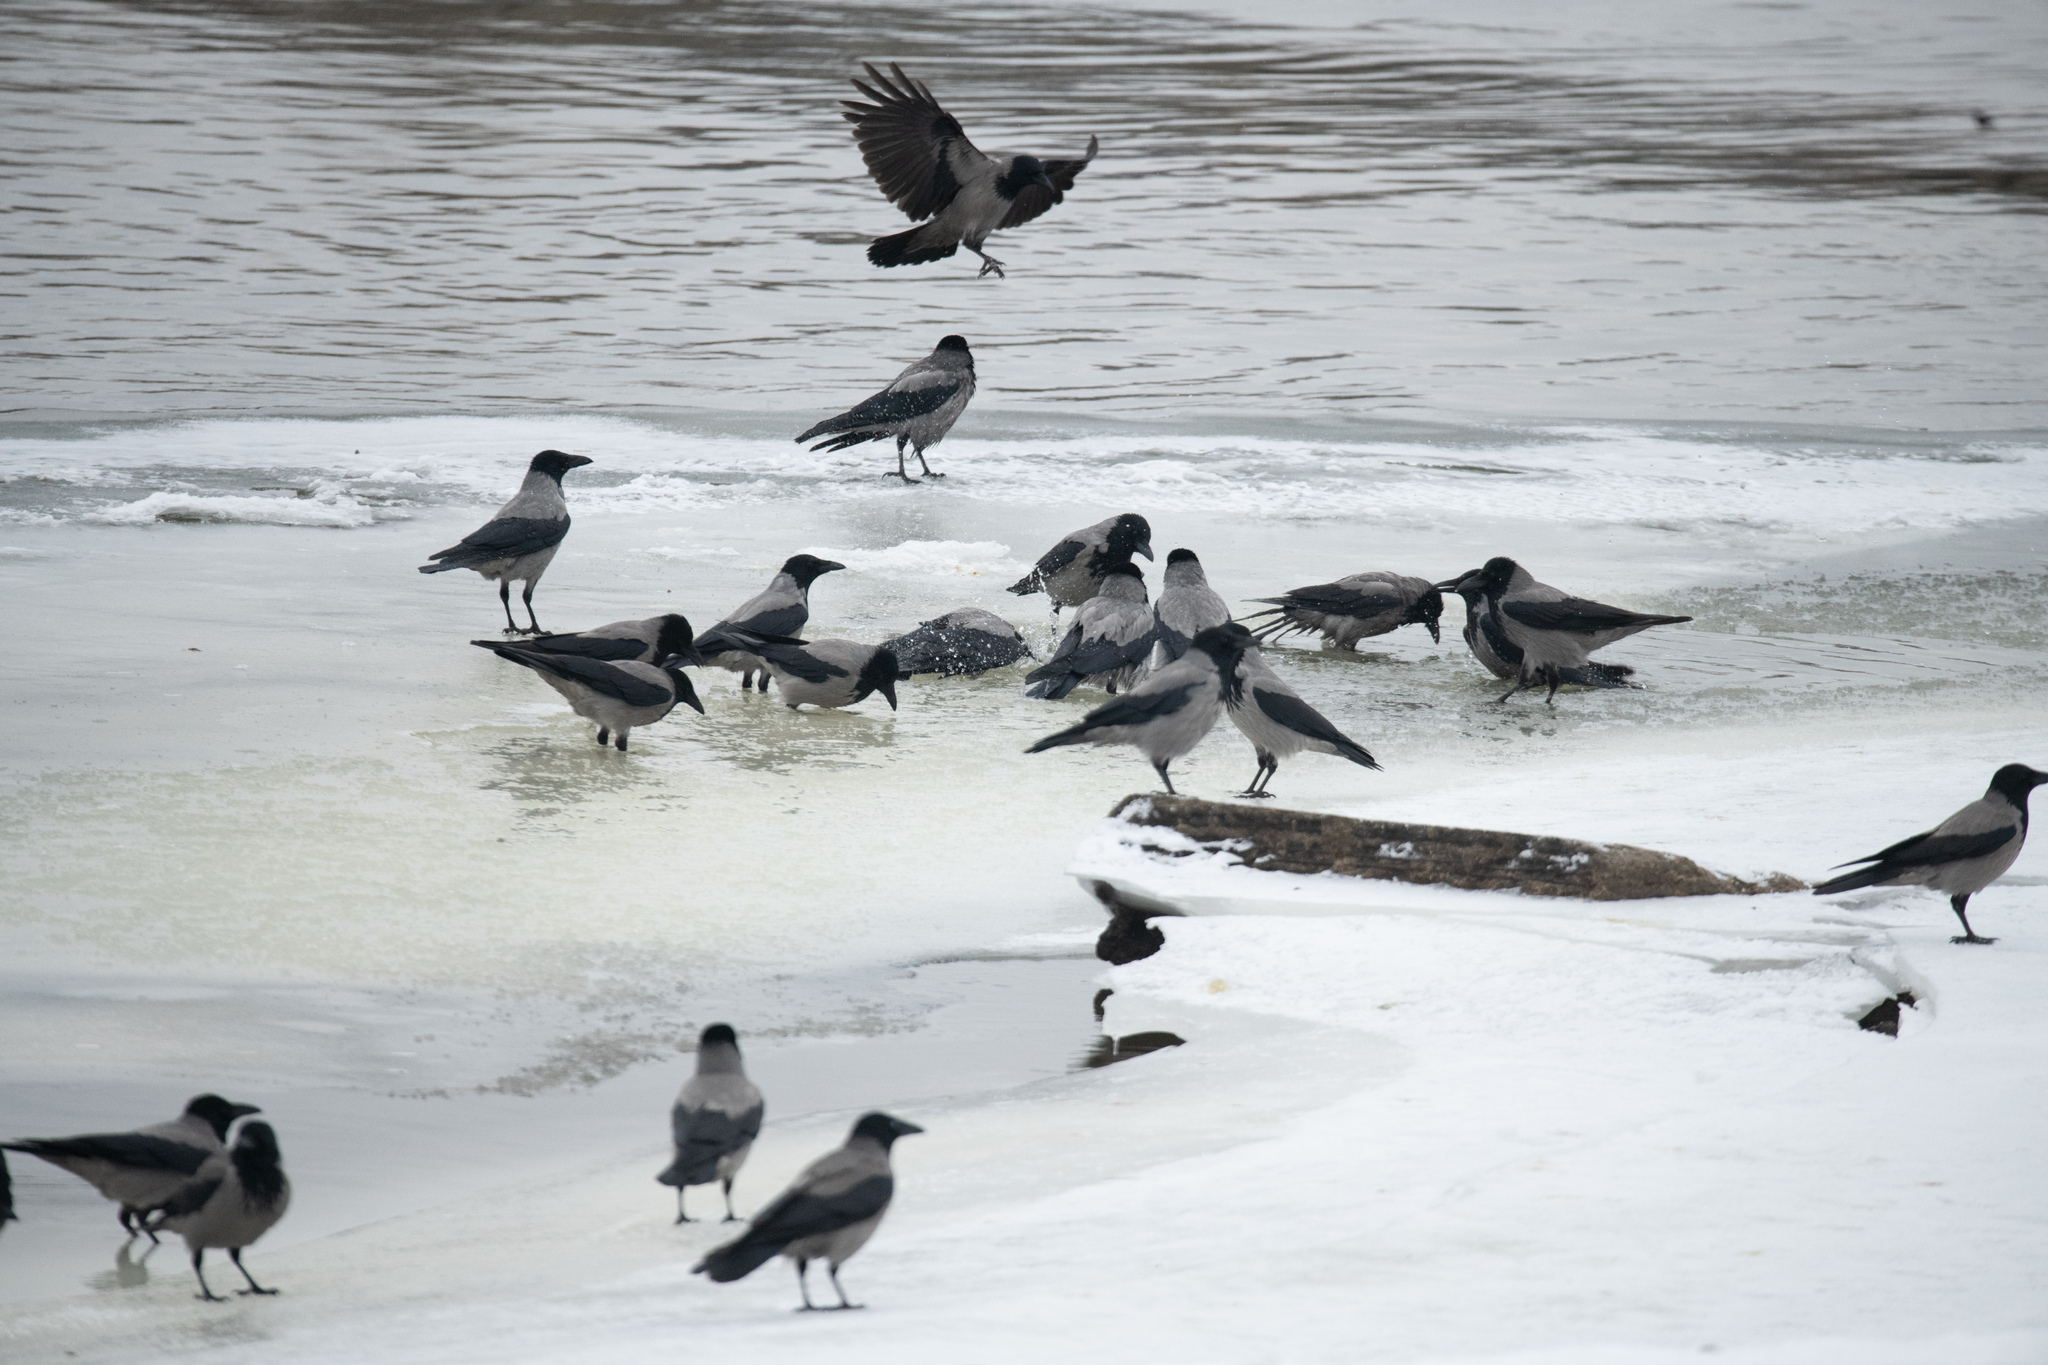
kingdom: Animalia
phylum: Chordata
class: Aves
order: Passeriformes
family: Corvidae
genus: Corvus
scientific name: Corvus cornix
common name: Hooded crow
